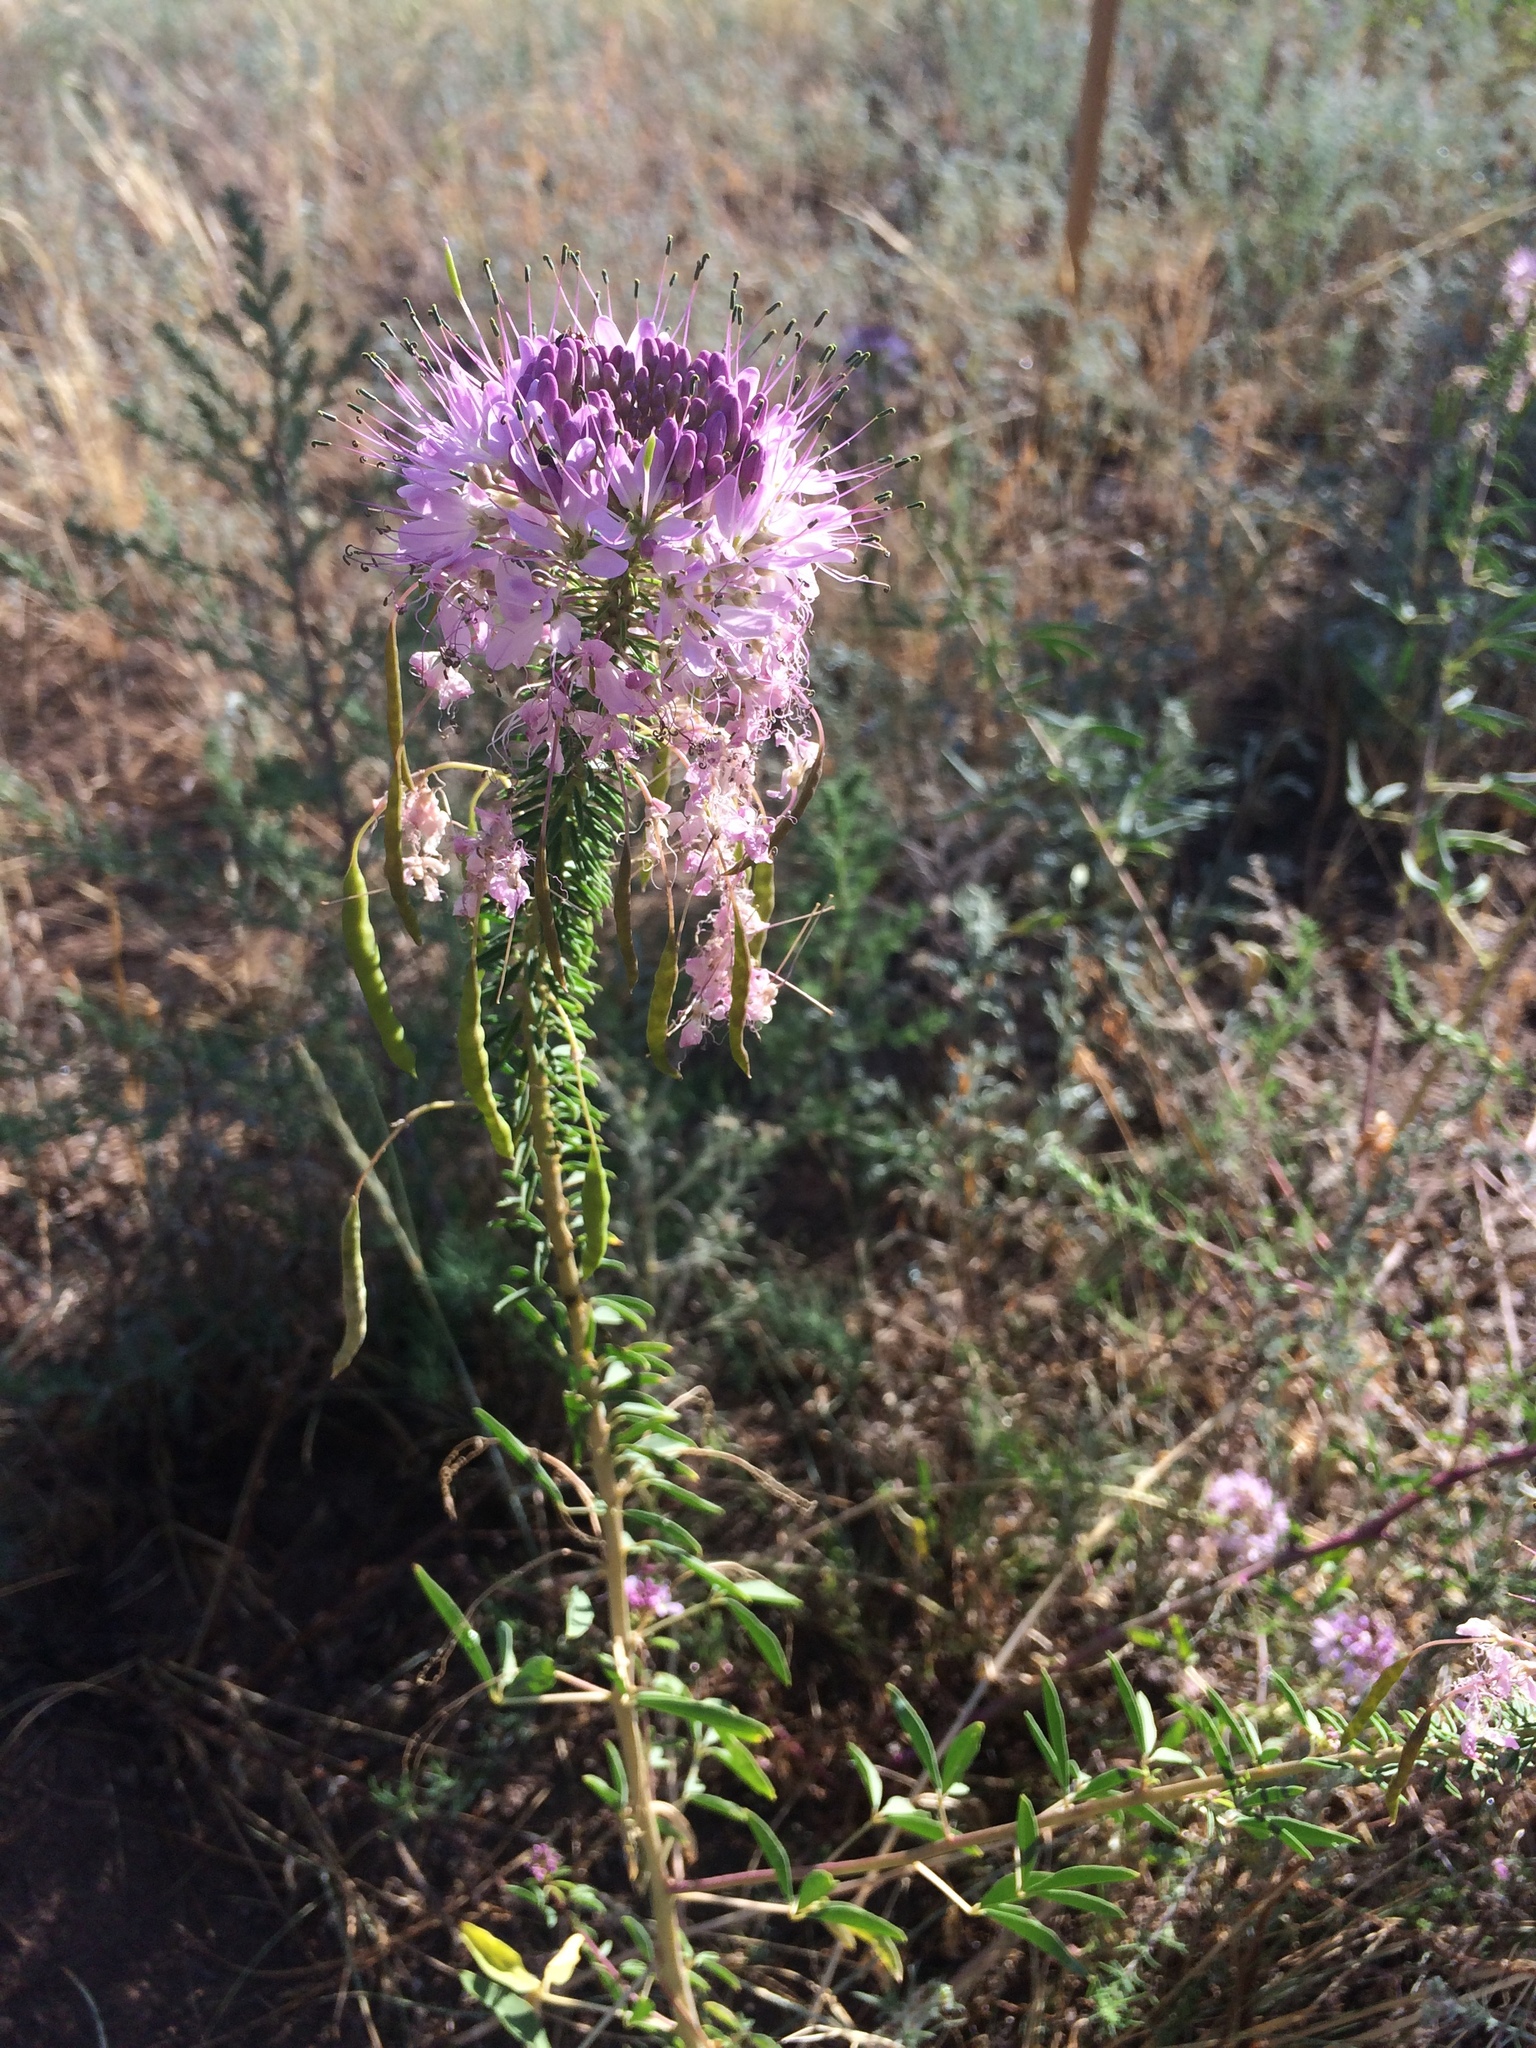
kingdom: Plantae
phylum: Tracheophyta
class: Magnoliopsida
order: Brassicales
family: Cleomaceae
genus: Cleomella
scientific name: Cleomella serrulata
